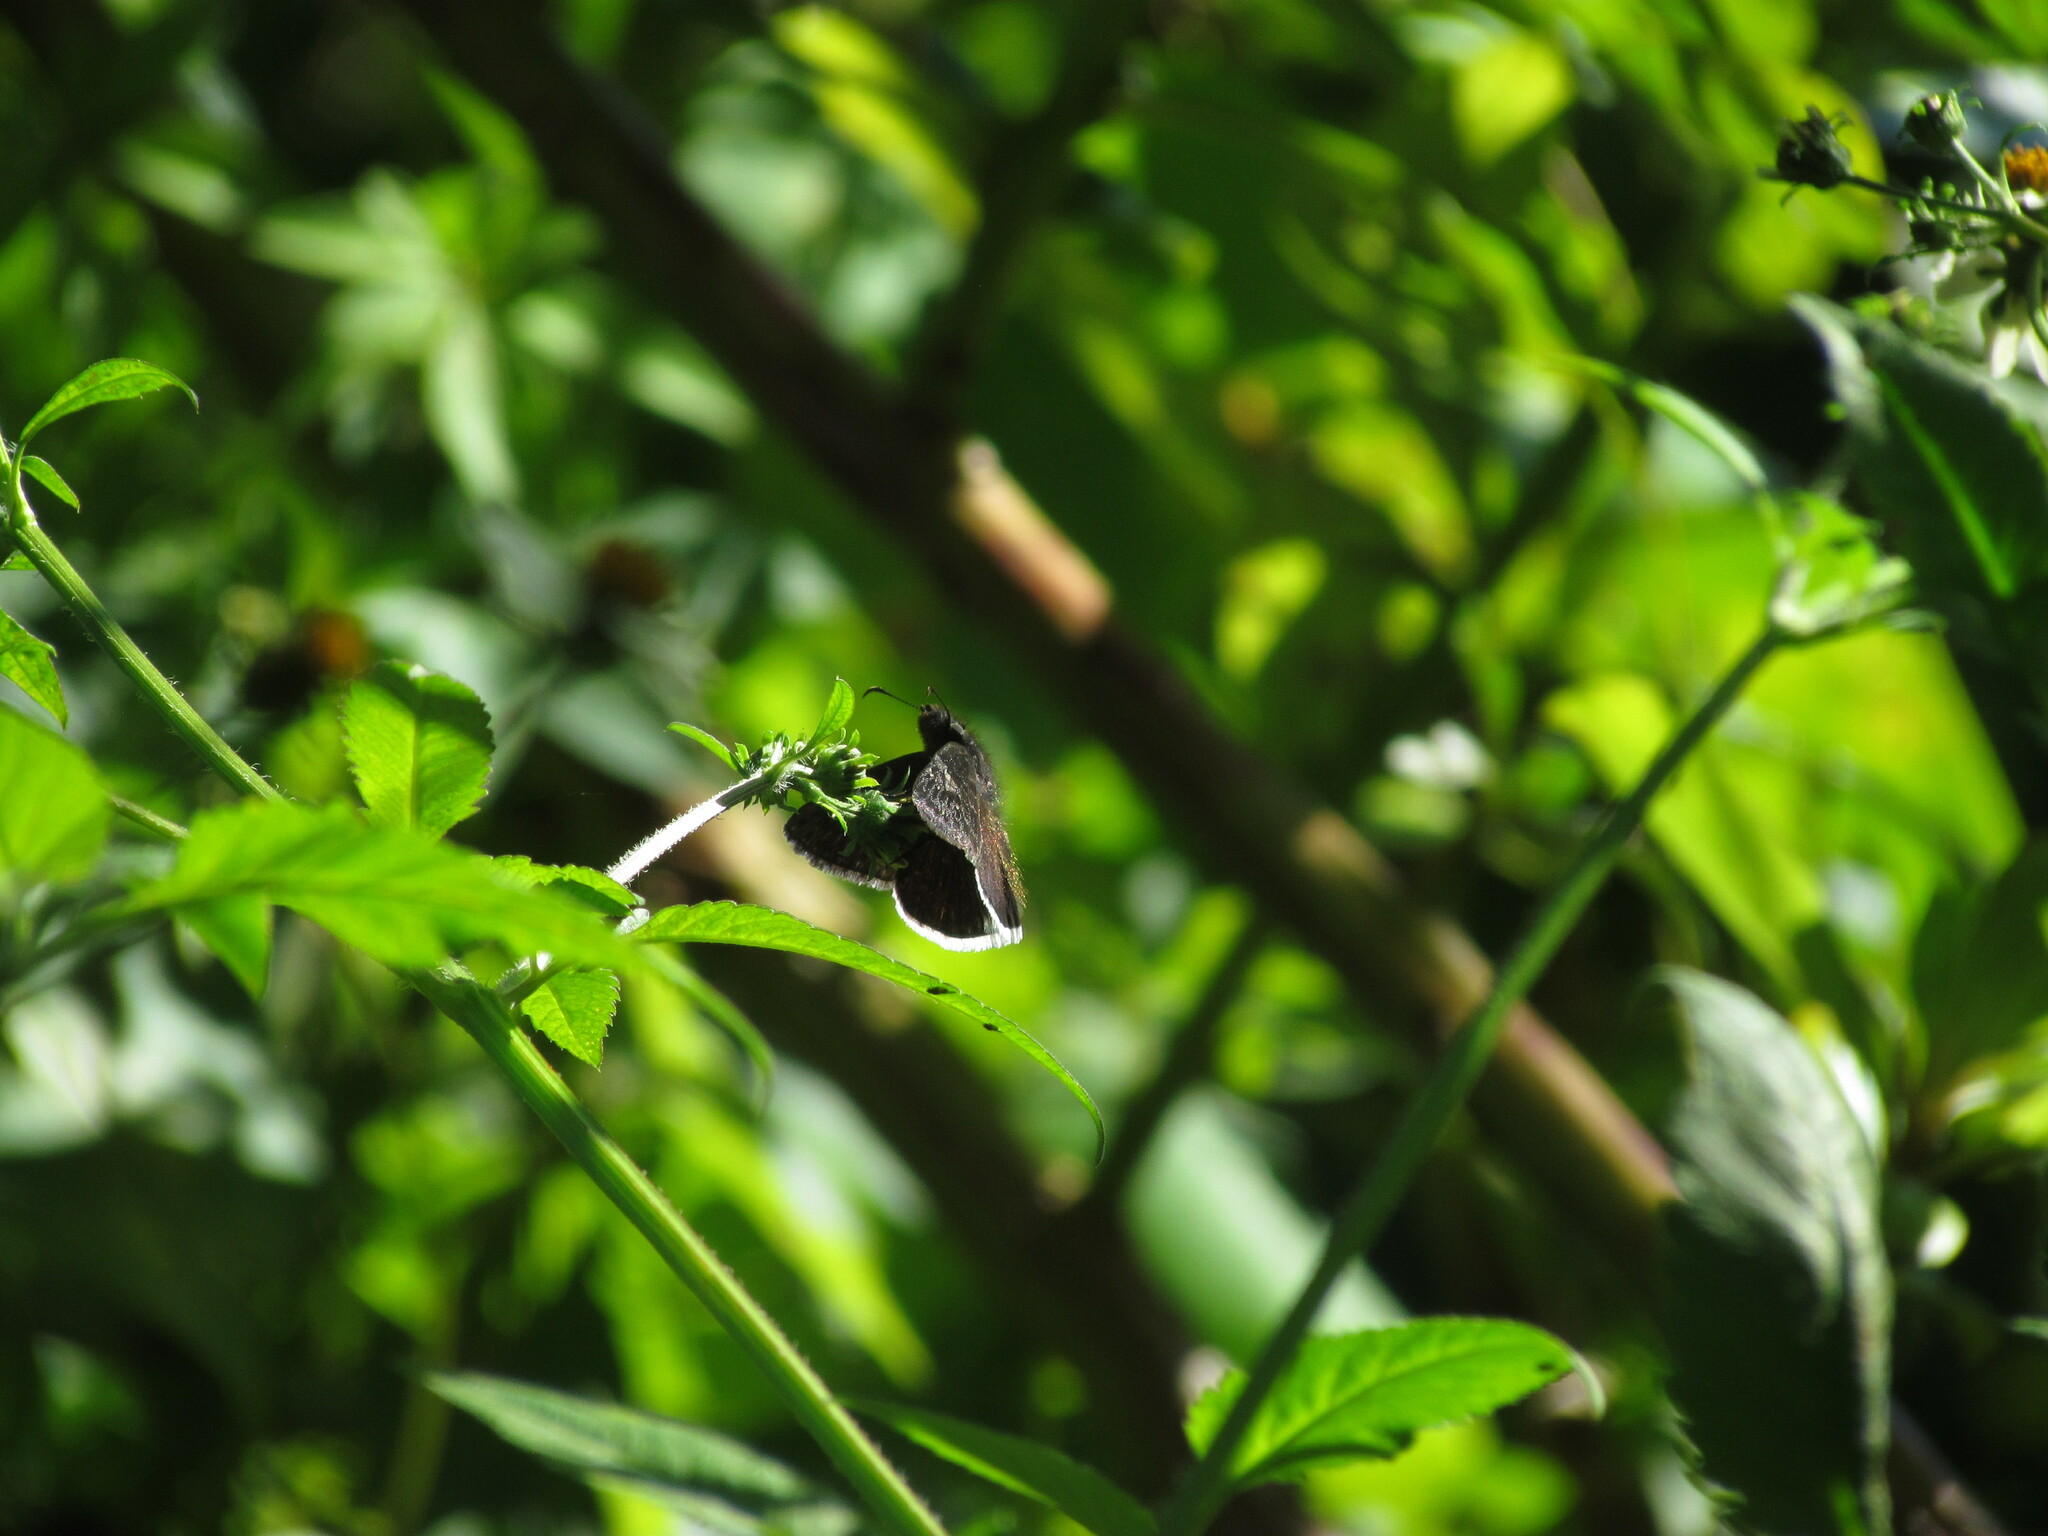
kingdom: Animalia
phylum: Arthropoda
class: Insecta
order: Lepidoptera
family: Hesperiidae
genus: Erynnis
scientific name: Erynnis funeralis
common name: Funereal duskywing
